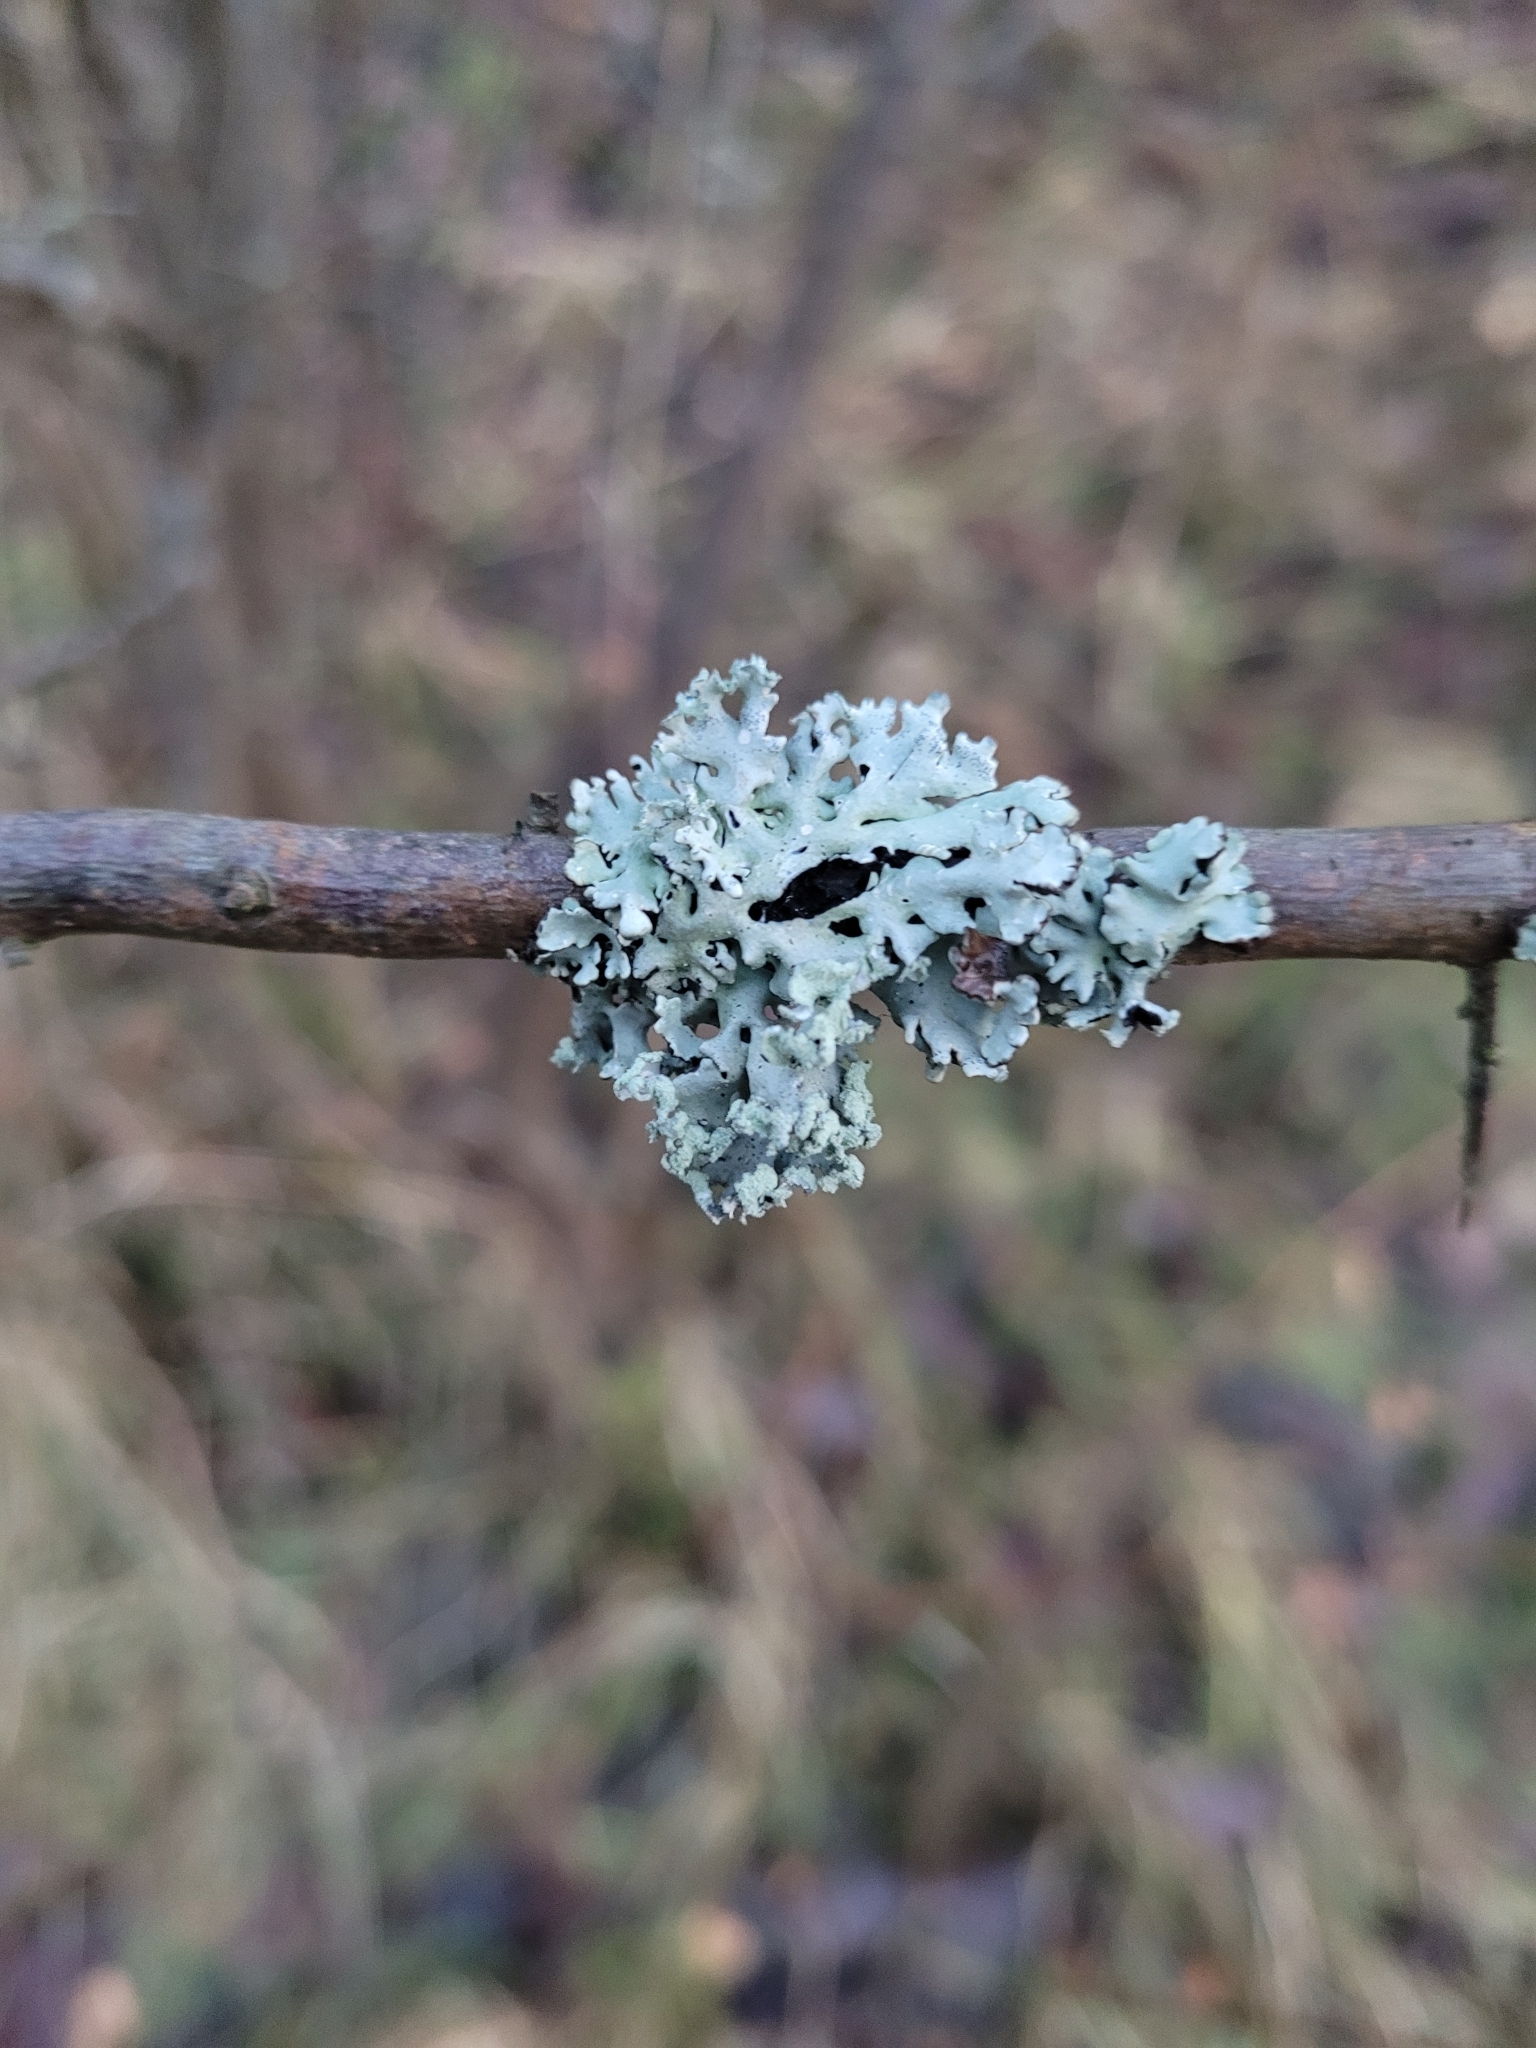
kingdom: Fungi
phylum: Ascomycota
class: Lecanoromycetes
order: Lecanorales
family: Parmeliaceae
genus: Hypogymnia
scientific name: Hypogymnia physodes
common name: Dark crottle
